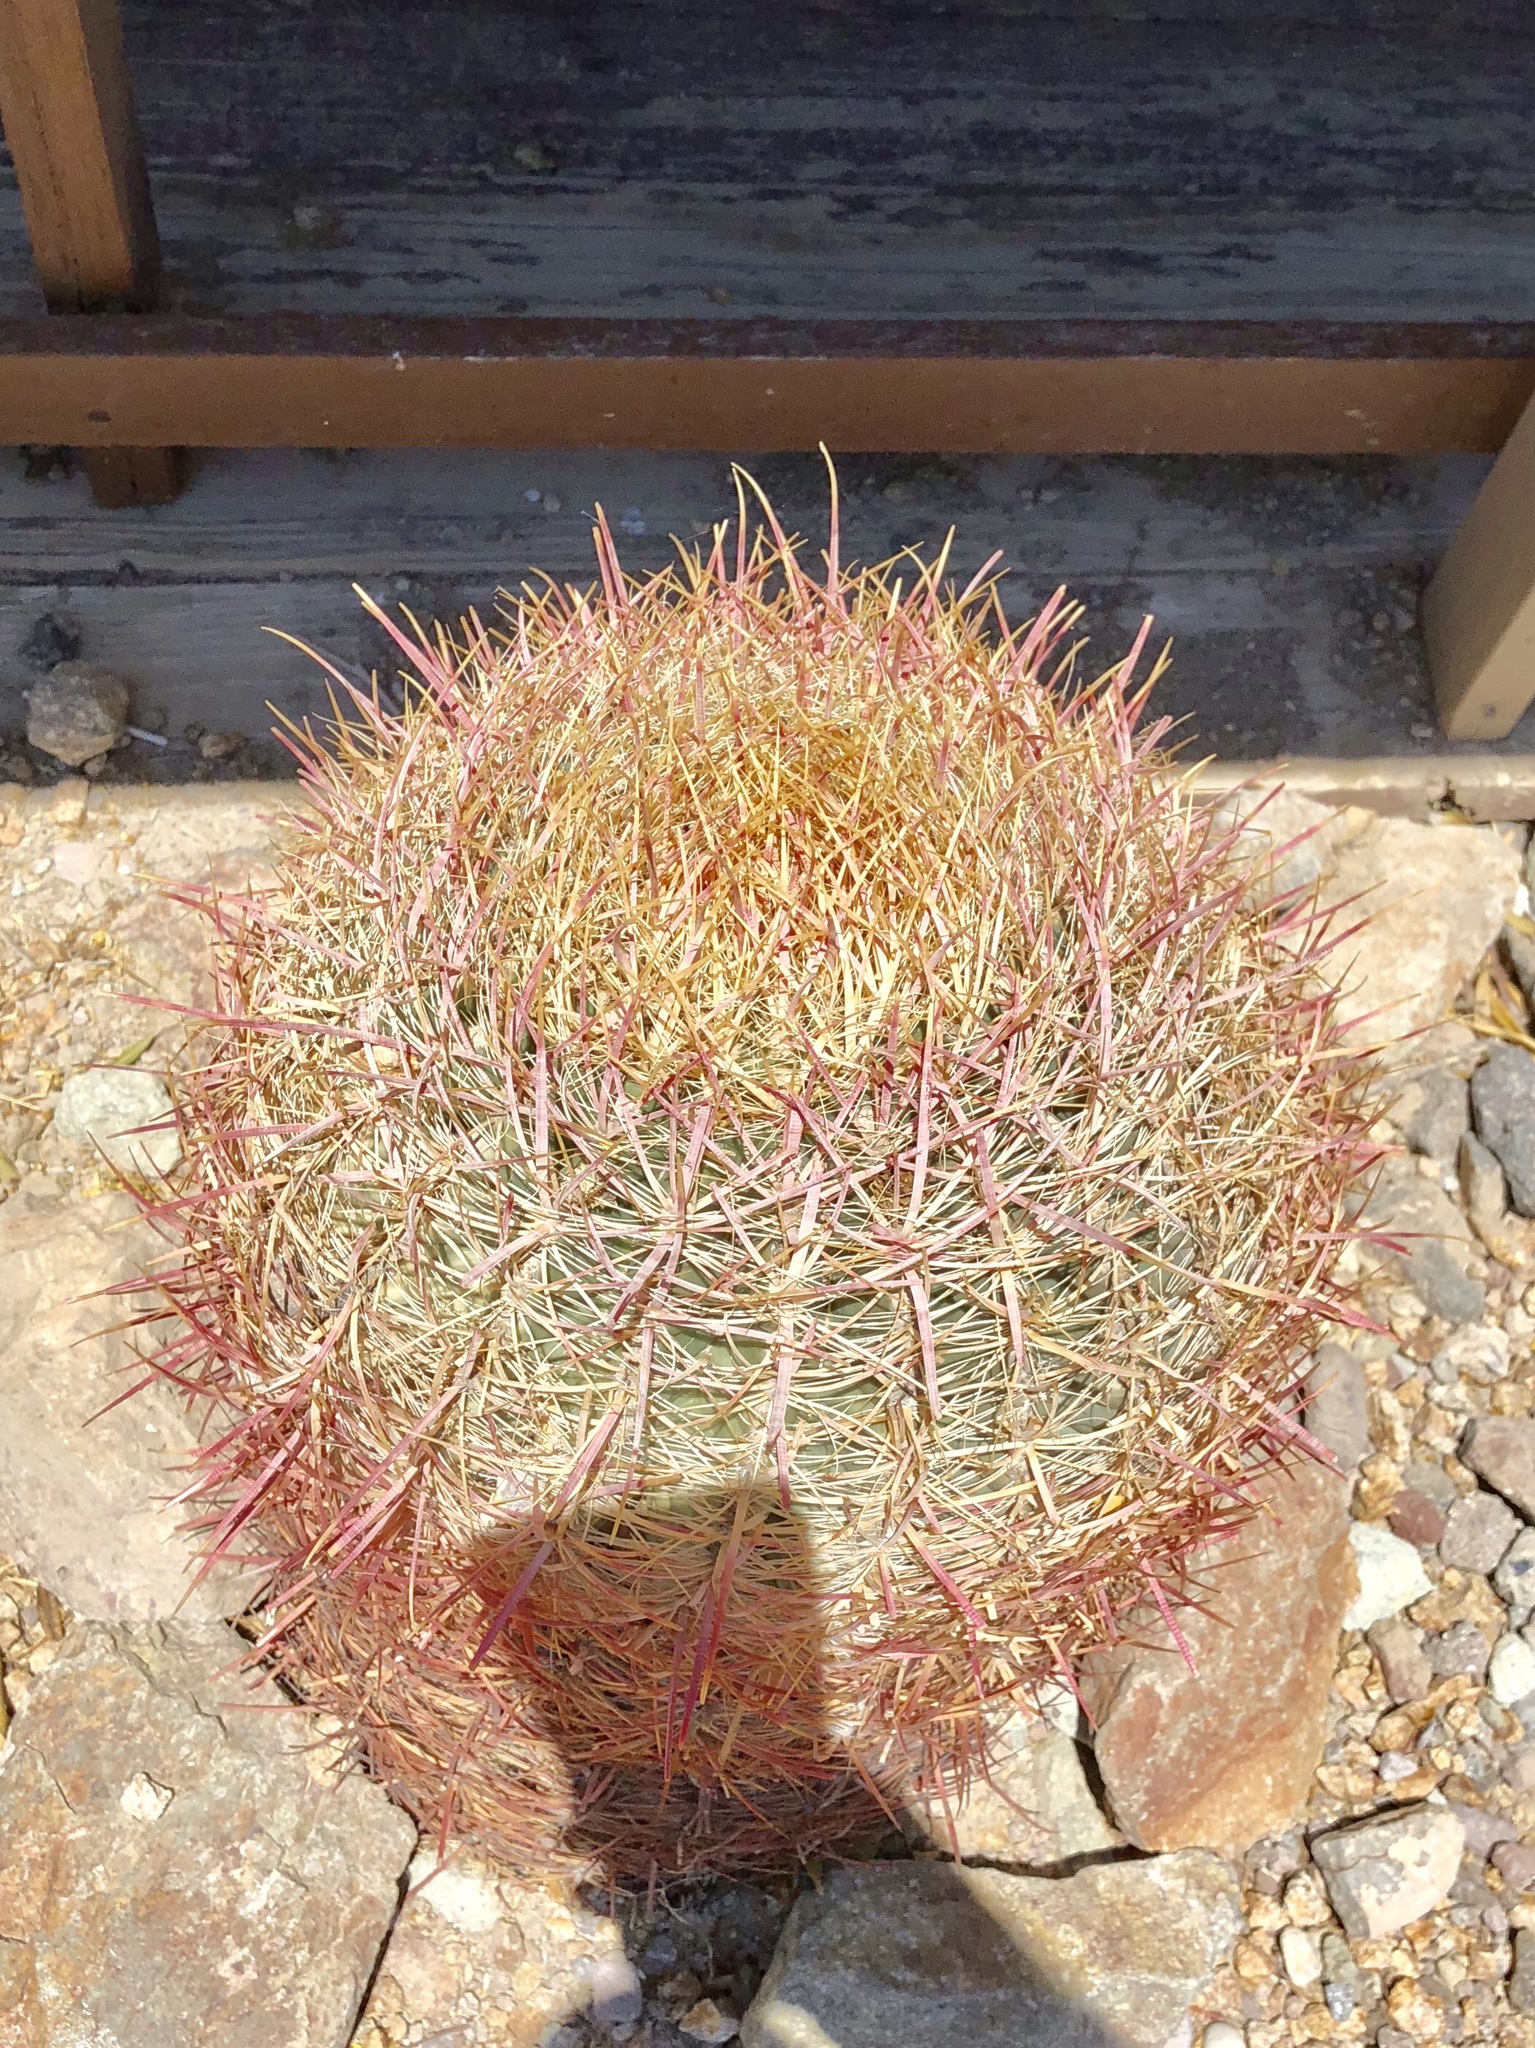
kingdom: Plantae
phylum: Tracheophyta
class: Magnoliopsida
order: Caryophyllales
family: Cactaceae
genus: Ferocactus
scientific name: Ferocactus cylindraceus
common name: California barrel cactus
